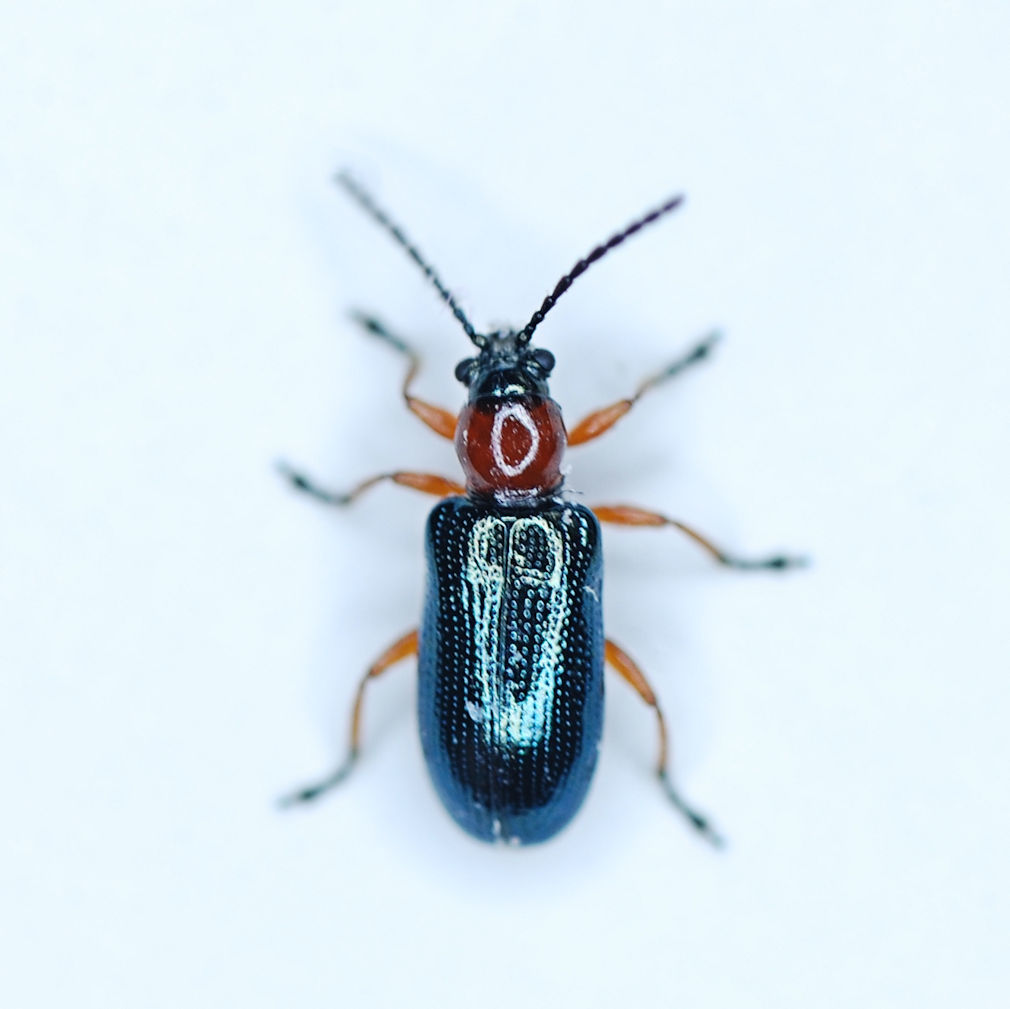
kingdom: Animalia
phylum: Arthropoda
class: Insecta
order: Coleoptera
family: Chrysomelidae
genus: Oulema
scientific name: Oulema melanopus
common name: Cereal leaf beetle
